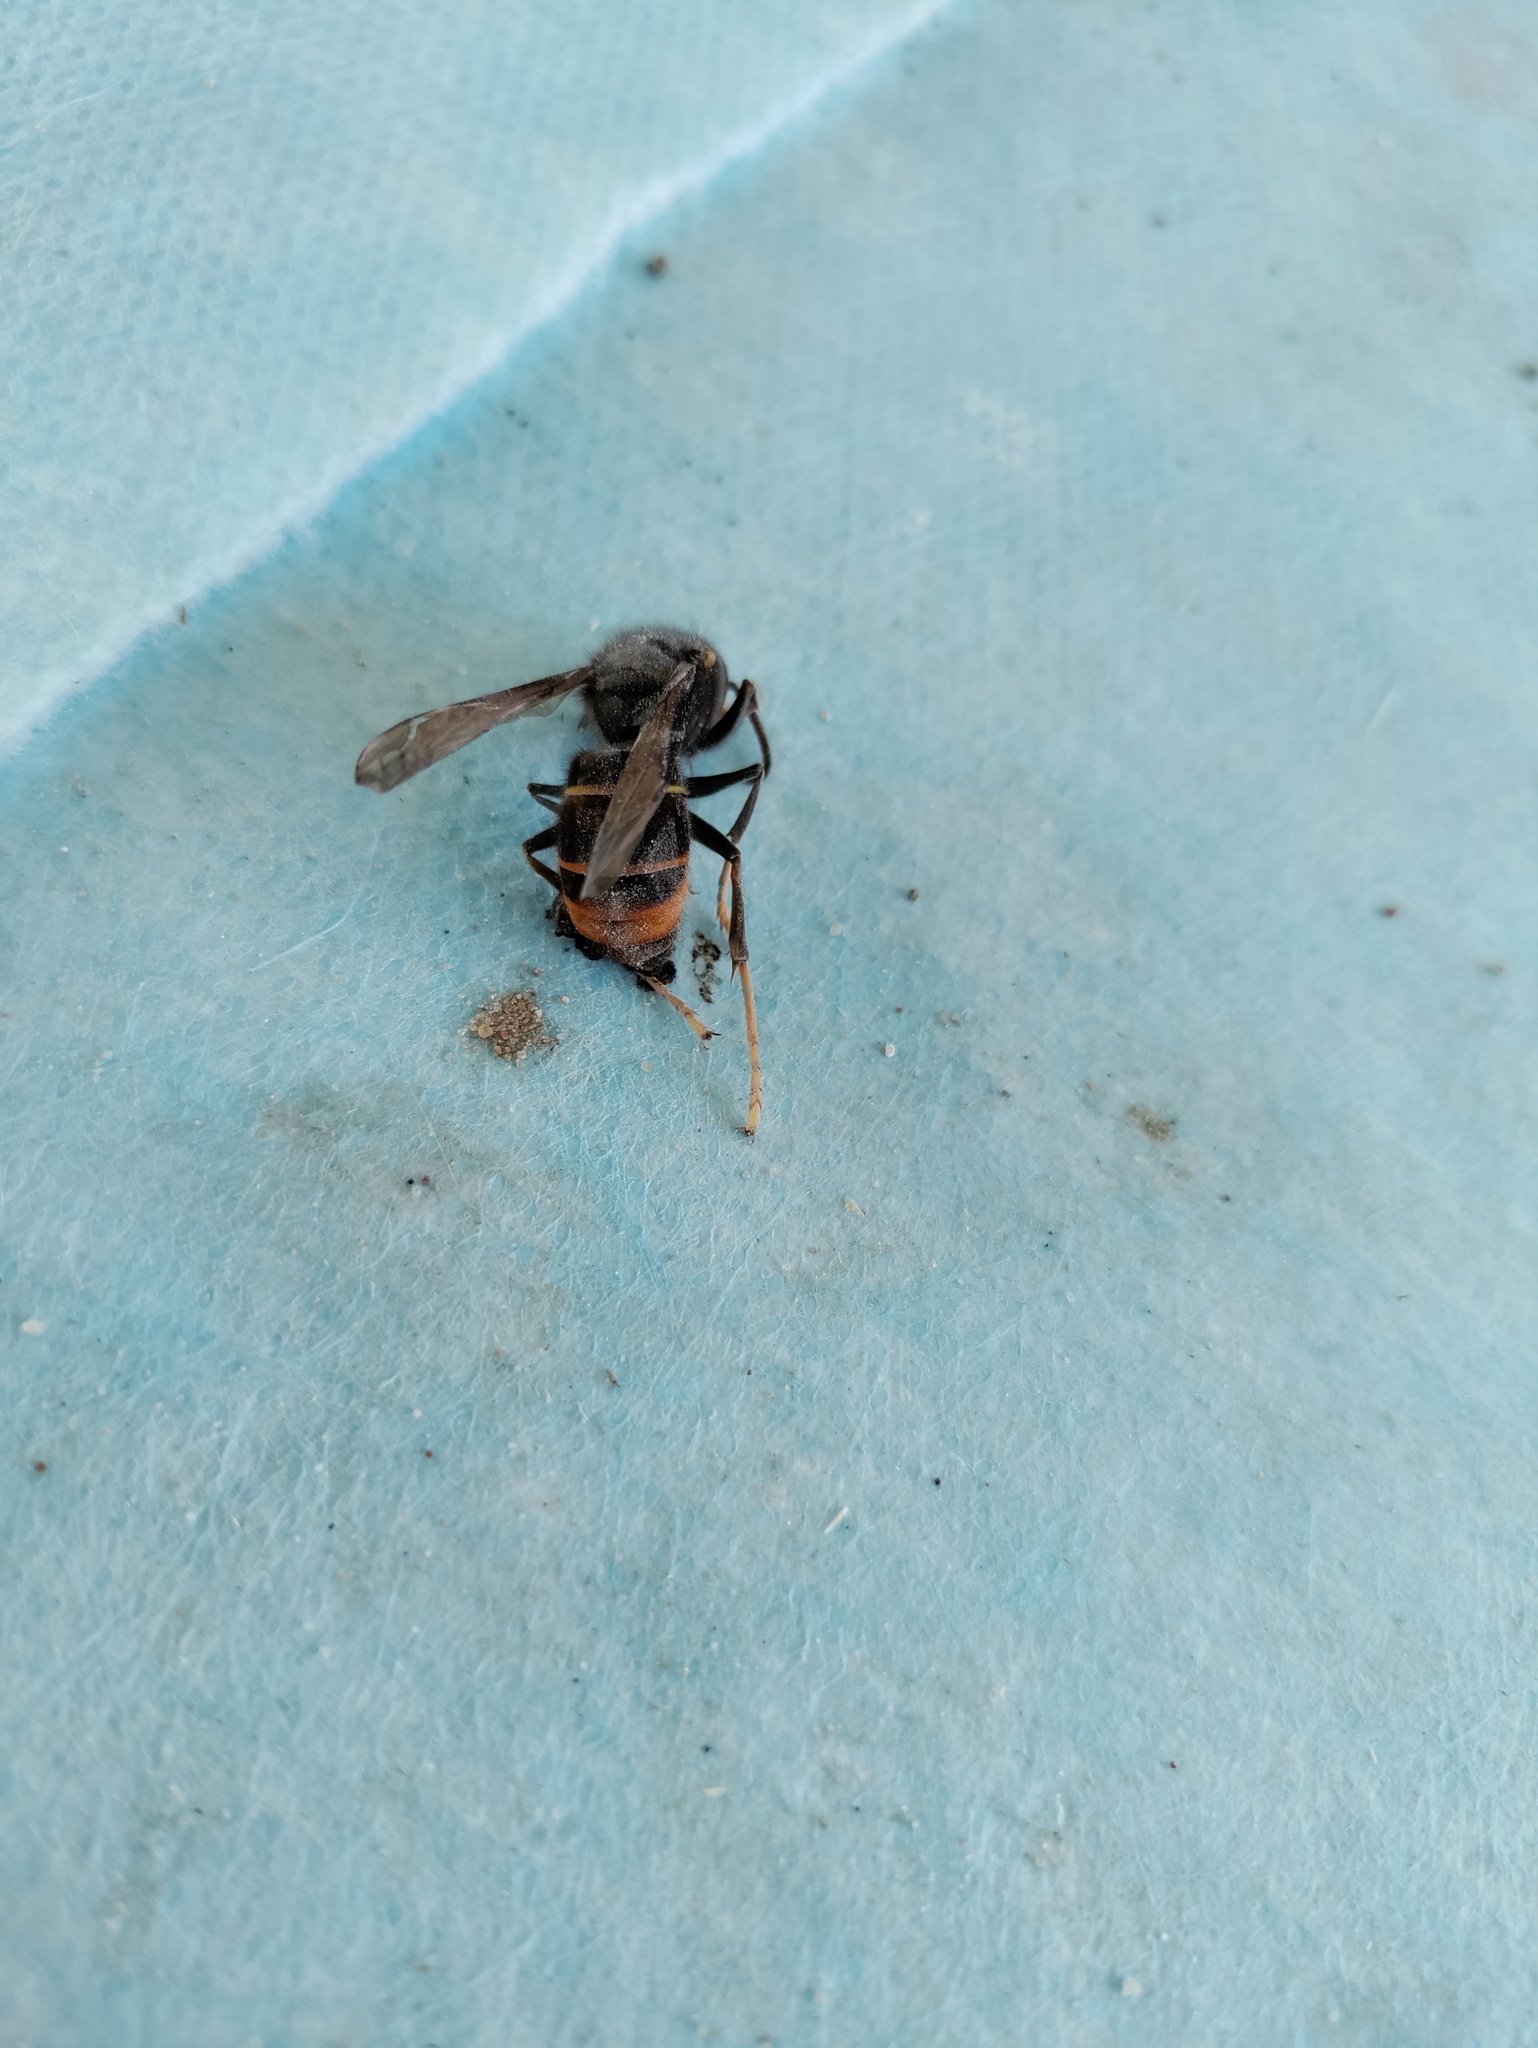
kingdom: Animalia
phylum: Arthropoda
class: Insecta
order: Hymenoptera
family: Vespidae
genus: Vespa
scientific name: Vespa velutina
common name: Asian hornet
